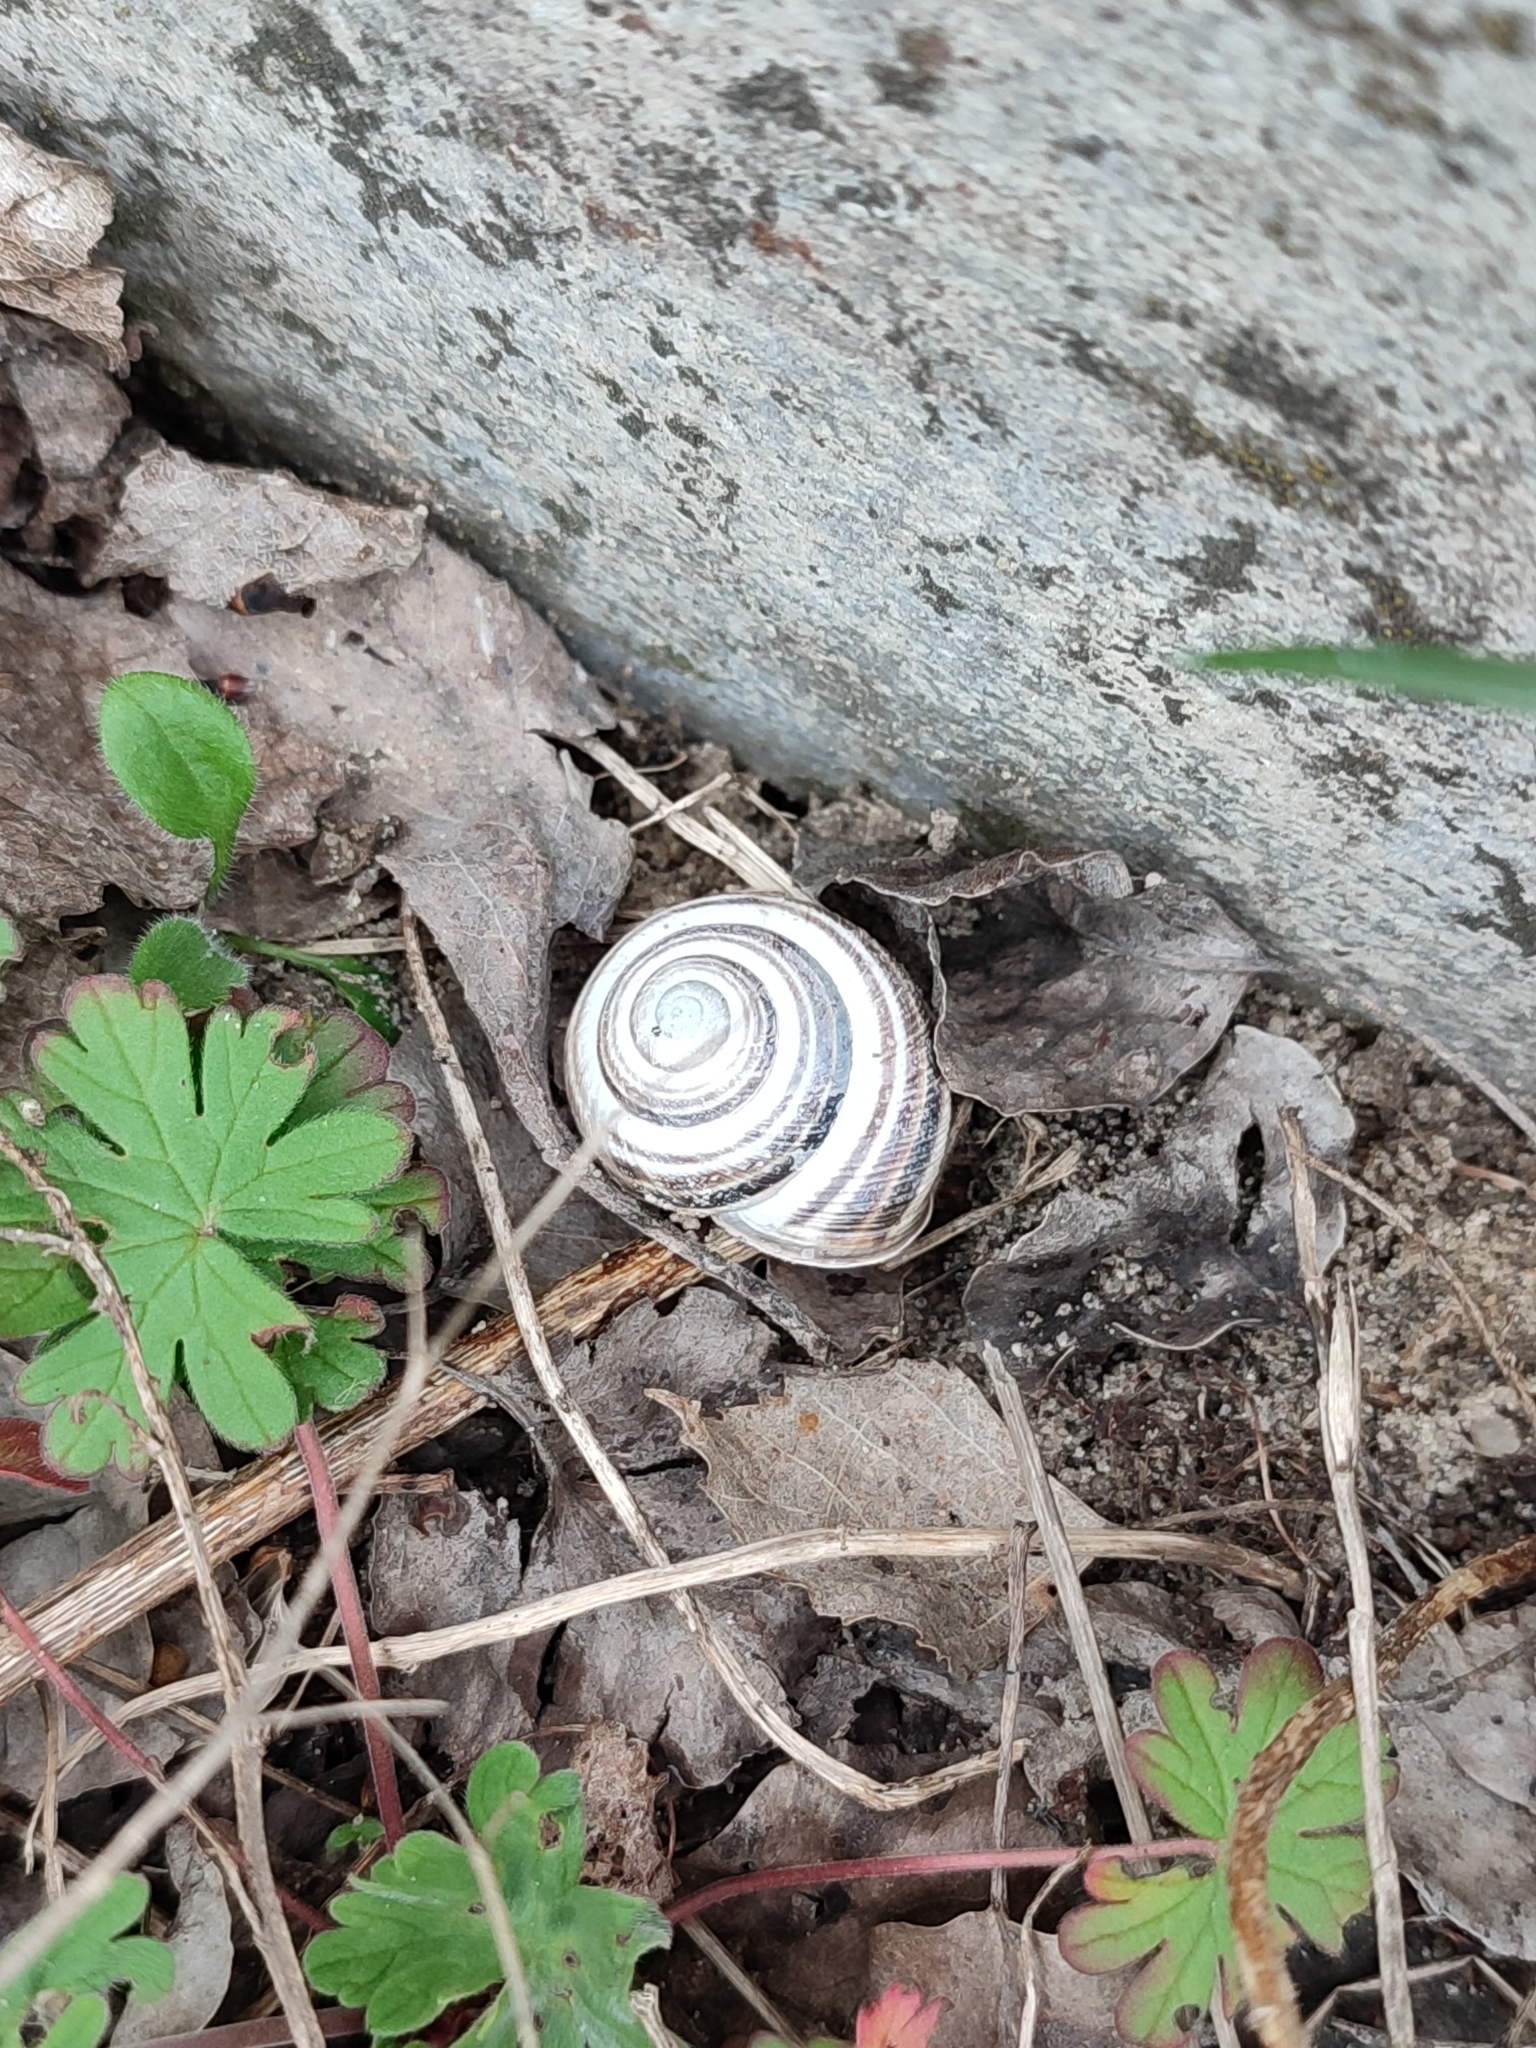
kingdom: Animalia
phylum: Mollusca
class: Gastropoda
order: Stylommatophora
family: Helicidae
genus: Caucasotachea
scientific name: Caucasotachea vindobonensis
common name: European helicid land snail
